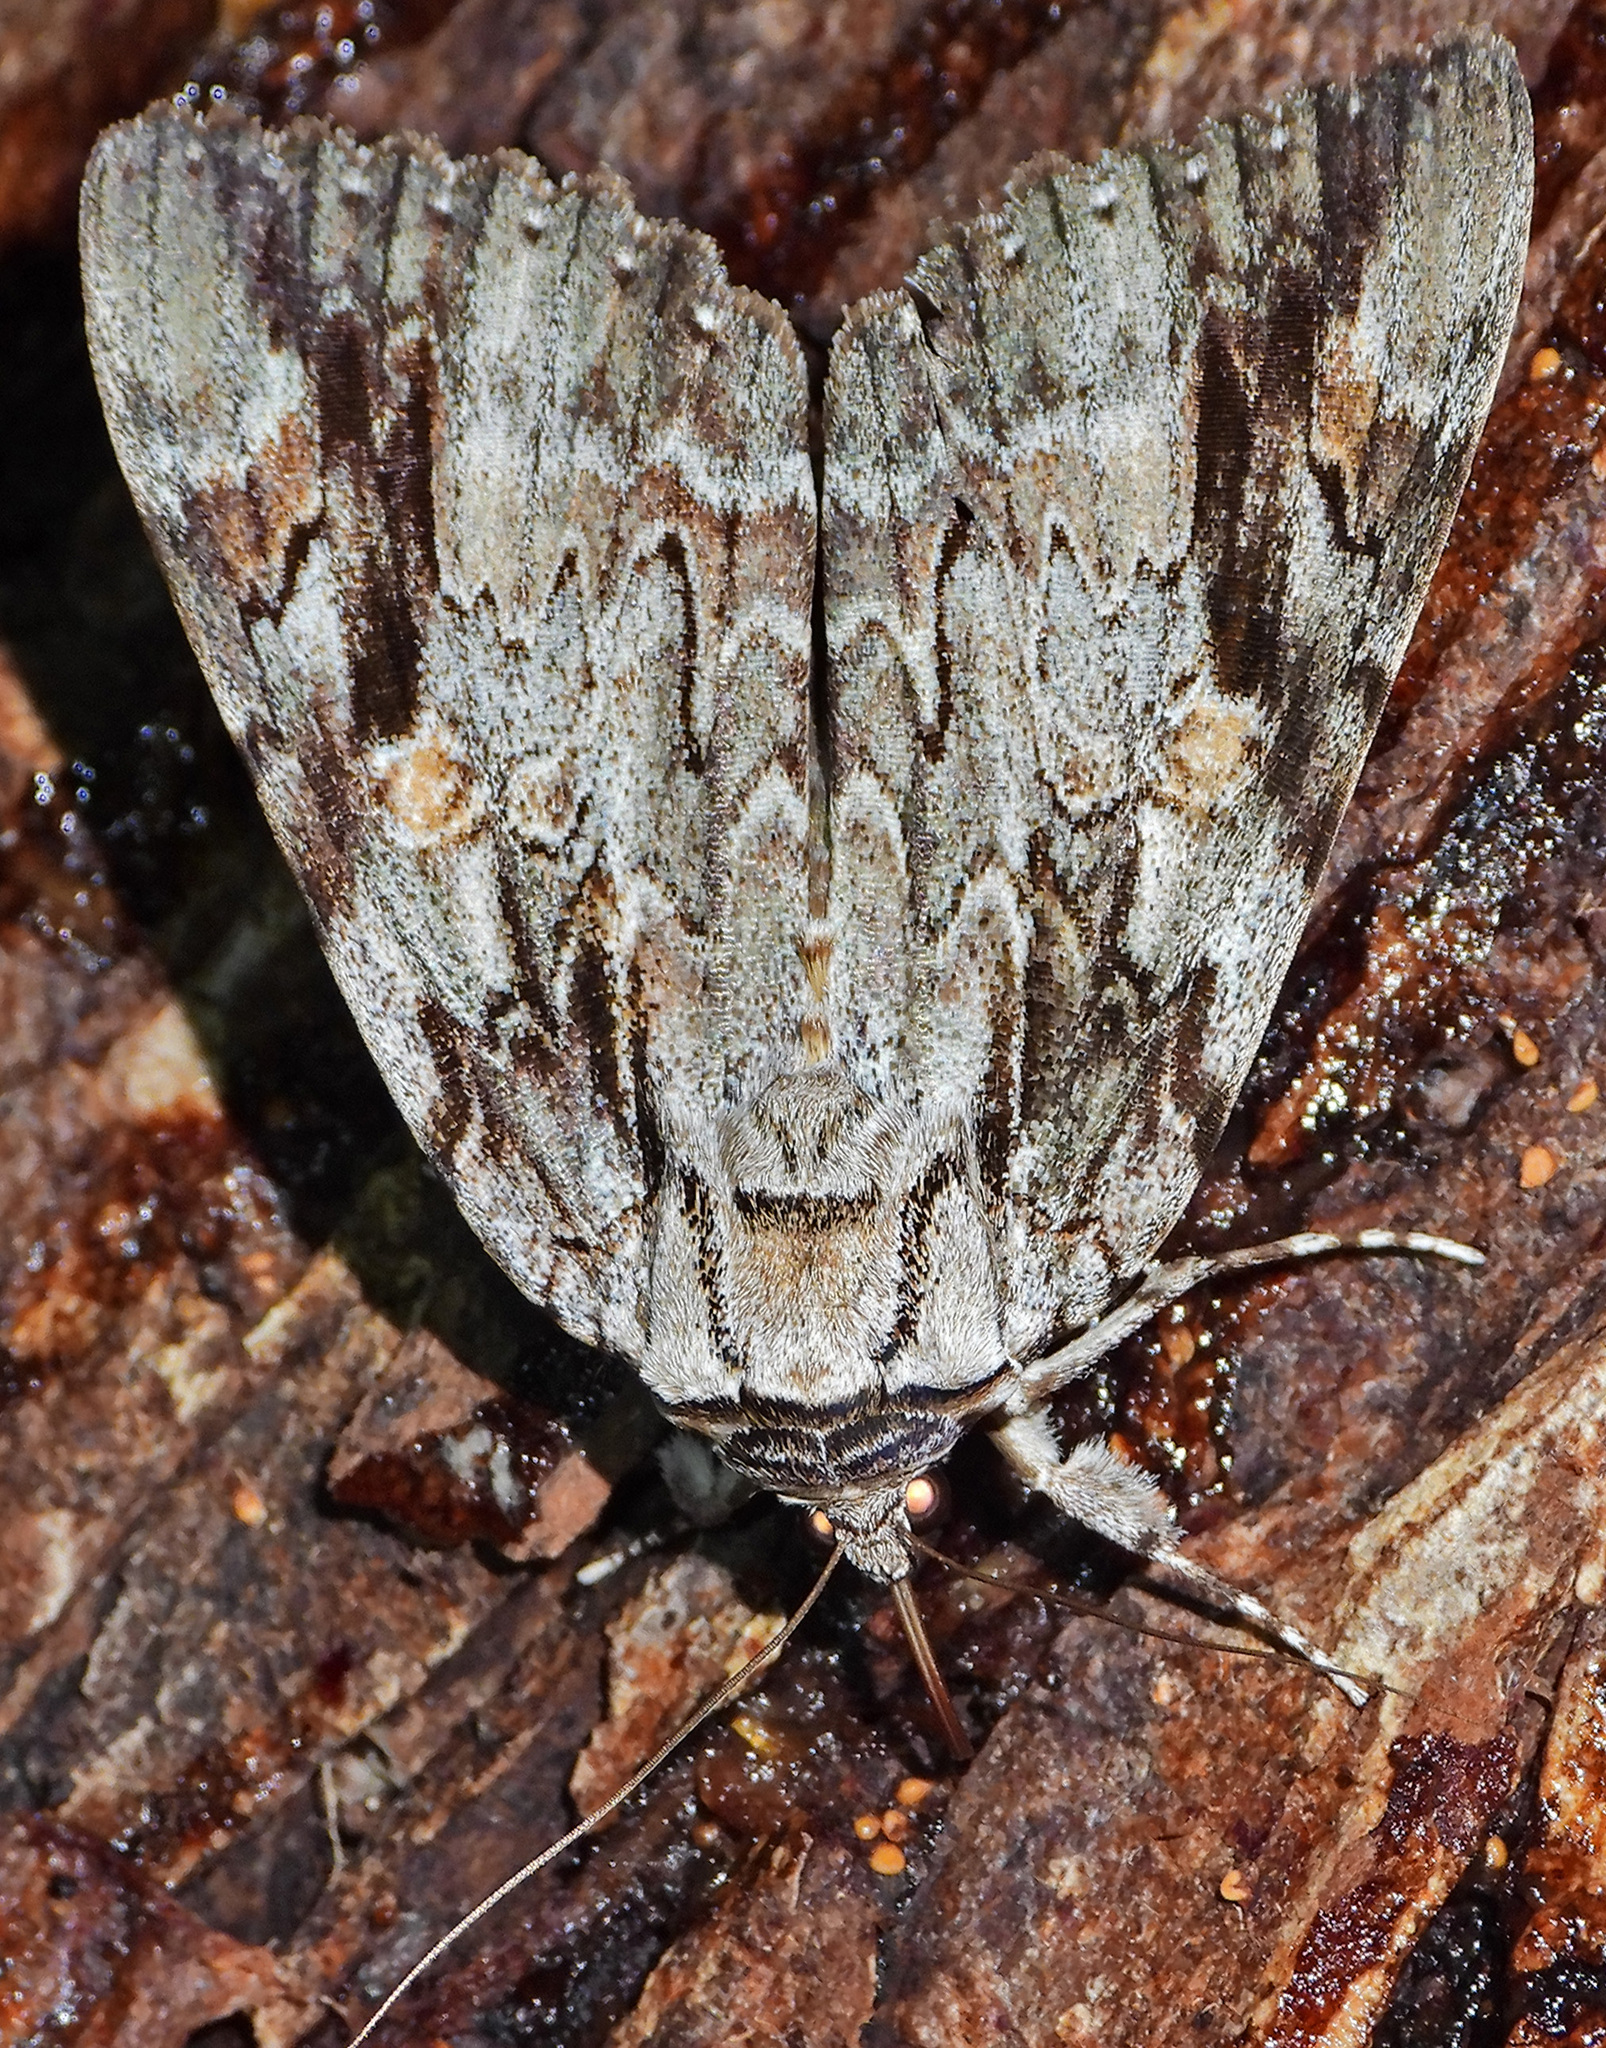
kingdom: Animalia
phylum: Arthropoda
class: Insecta
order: Lepidoptera
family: Erebidae
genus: Catocala
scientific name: Catocala maestosa
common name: Sad underwing
